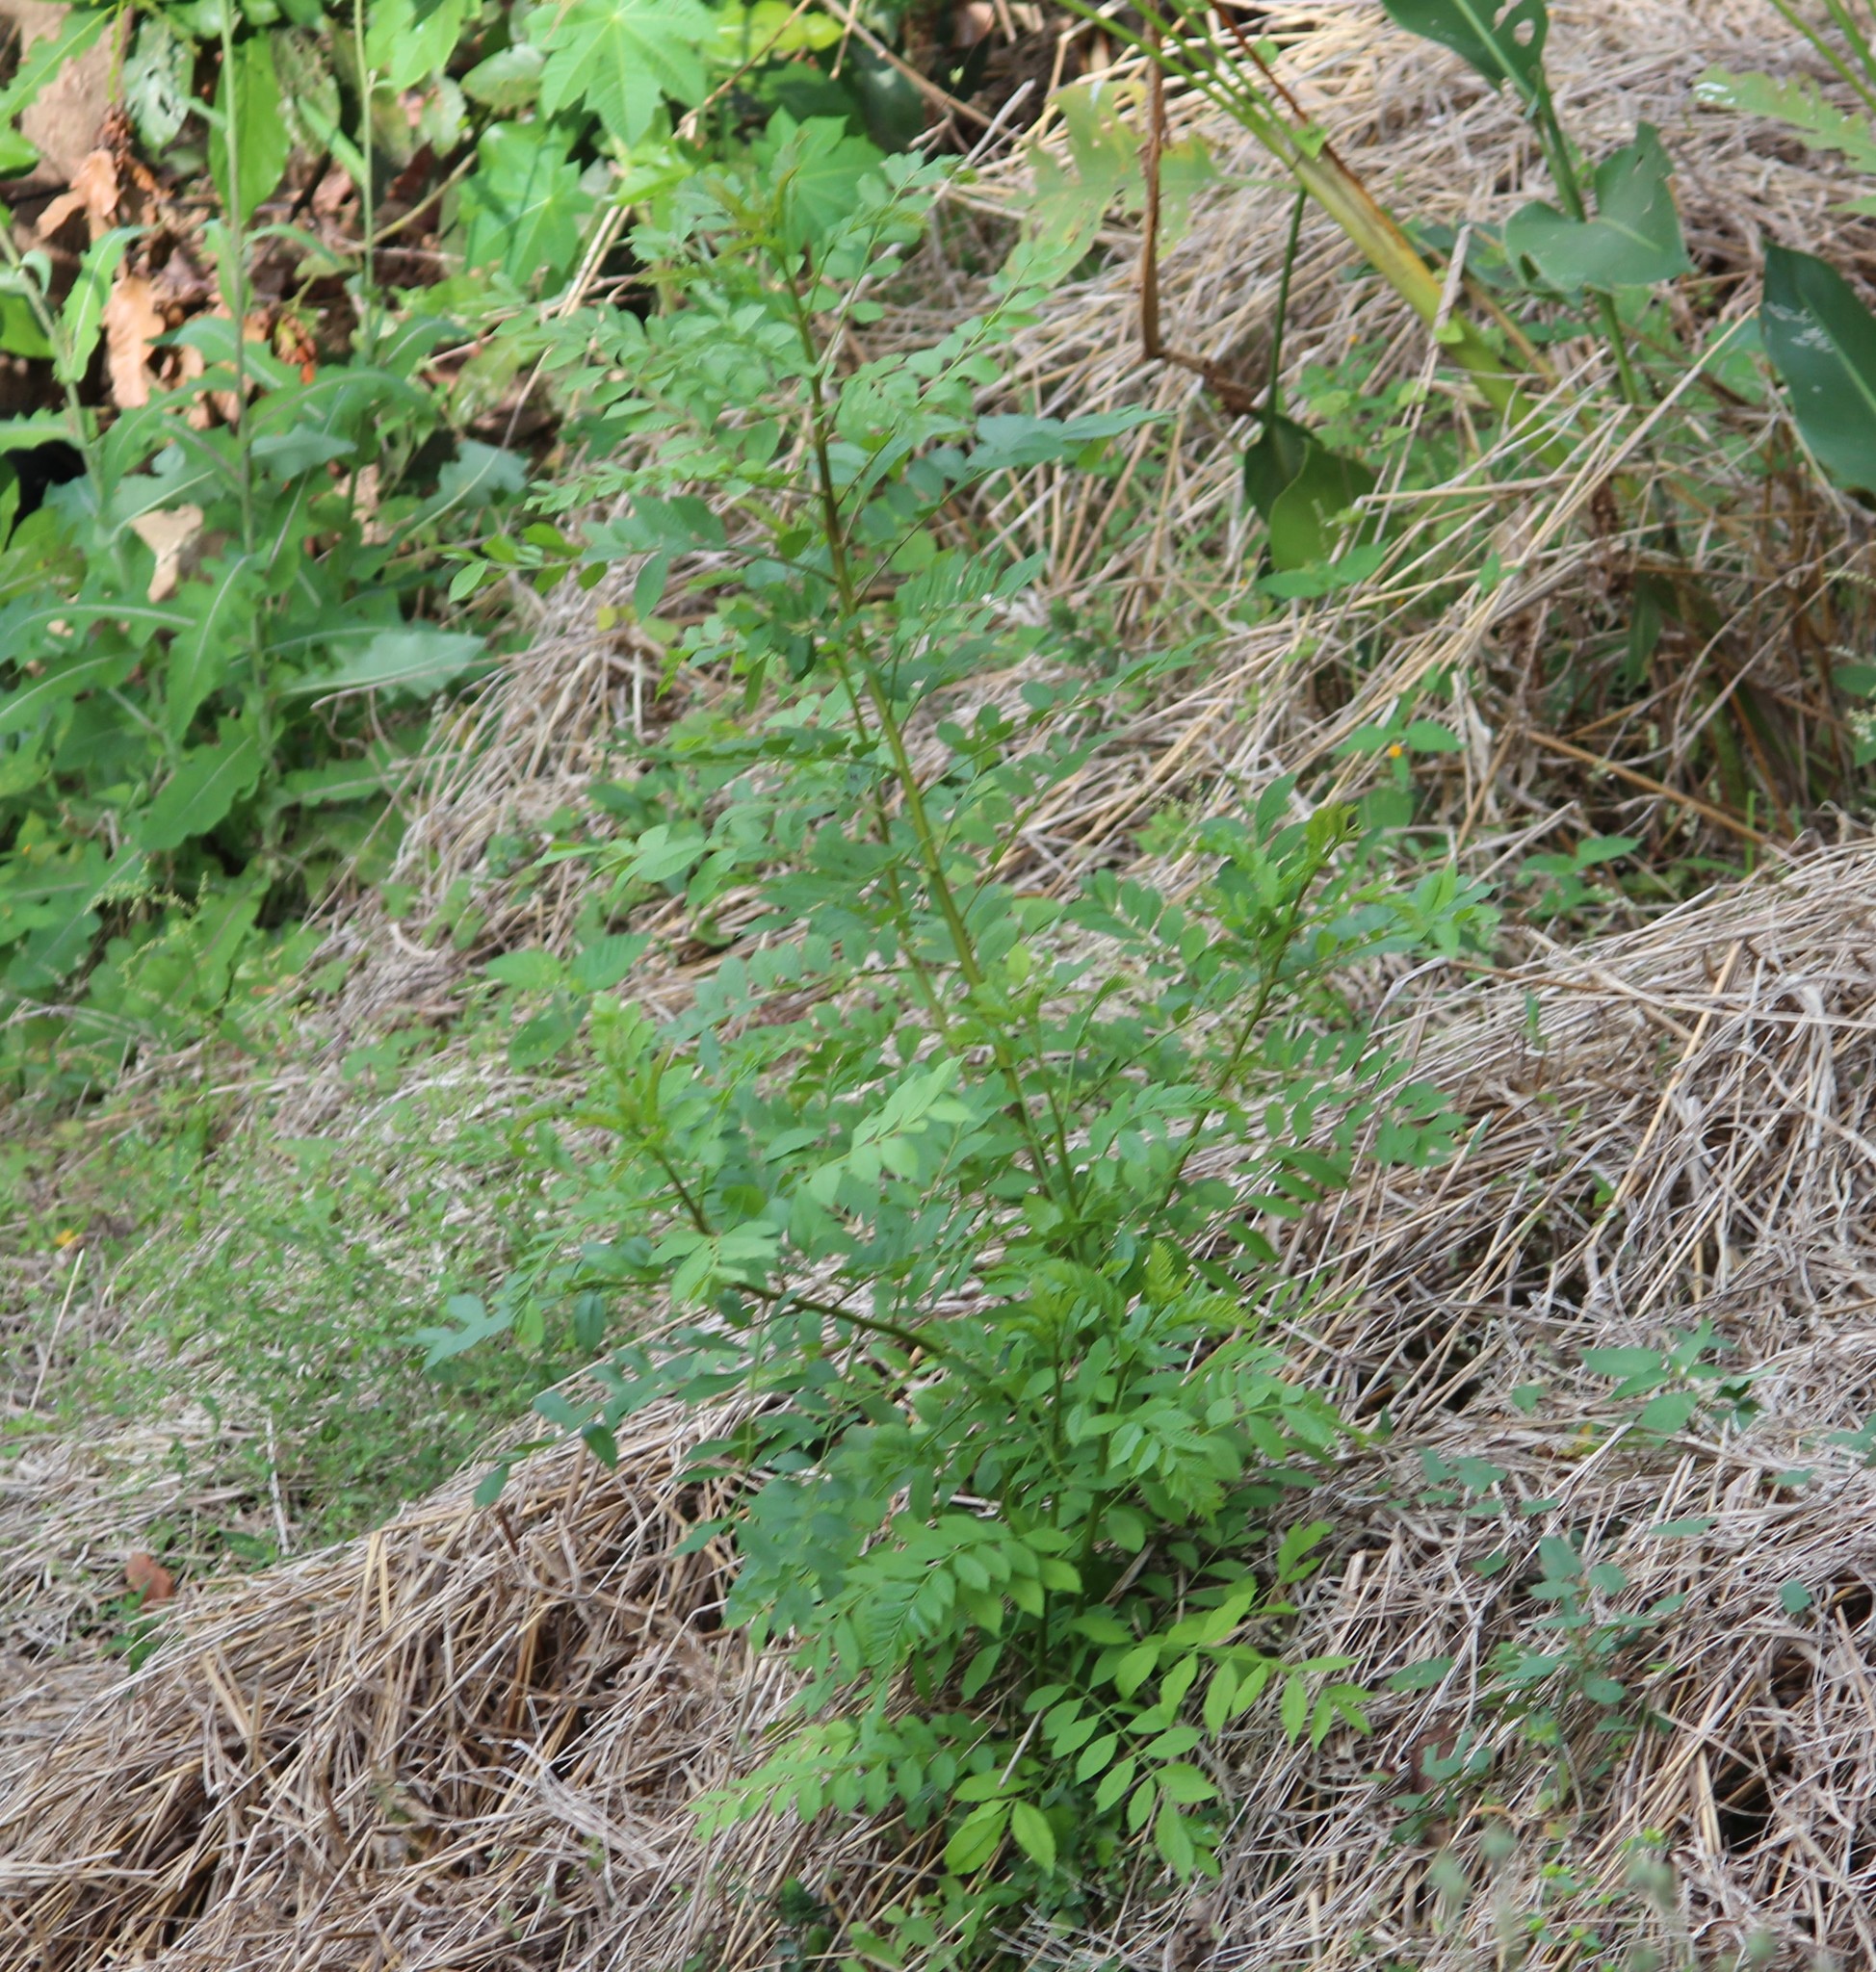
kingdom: Plantae
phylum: Tracheophyta
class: Magnoliopsida
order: Sapindales
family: Anacardiaceae
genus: Spondias
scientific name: Spondias purpurea
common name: Purple mombin
